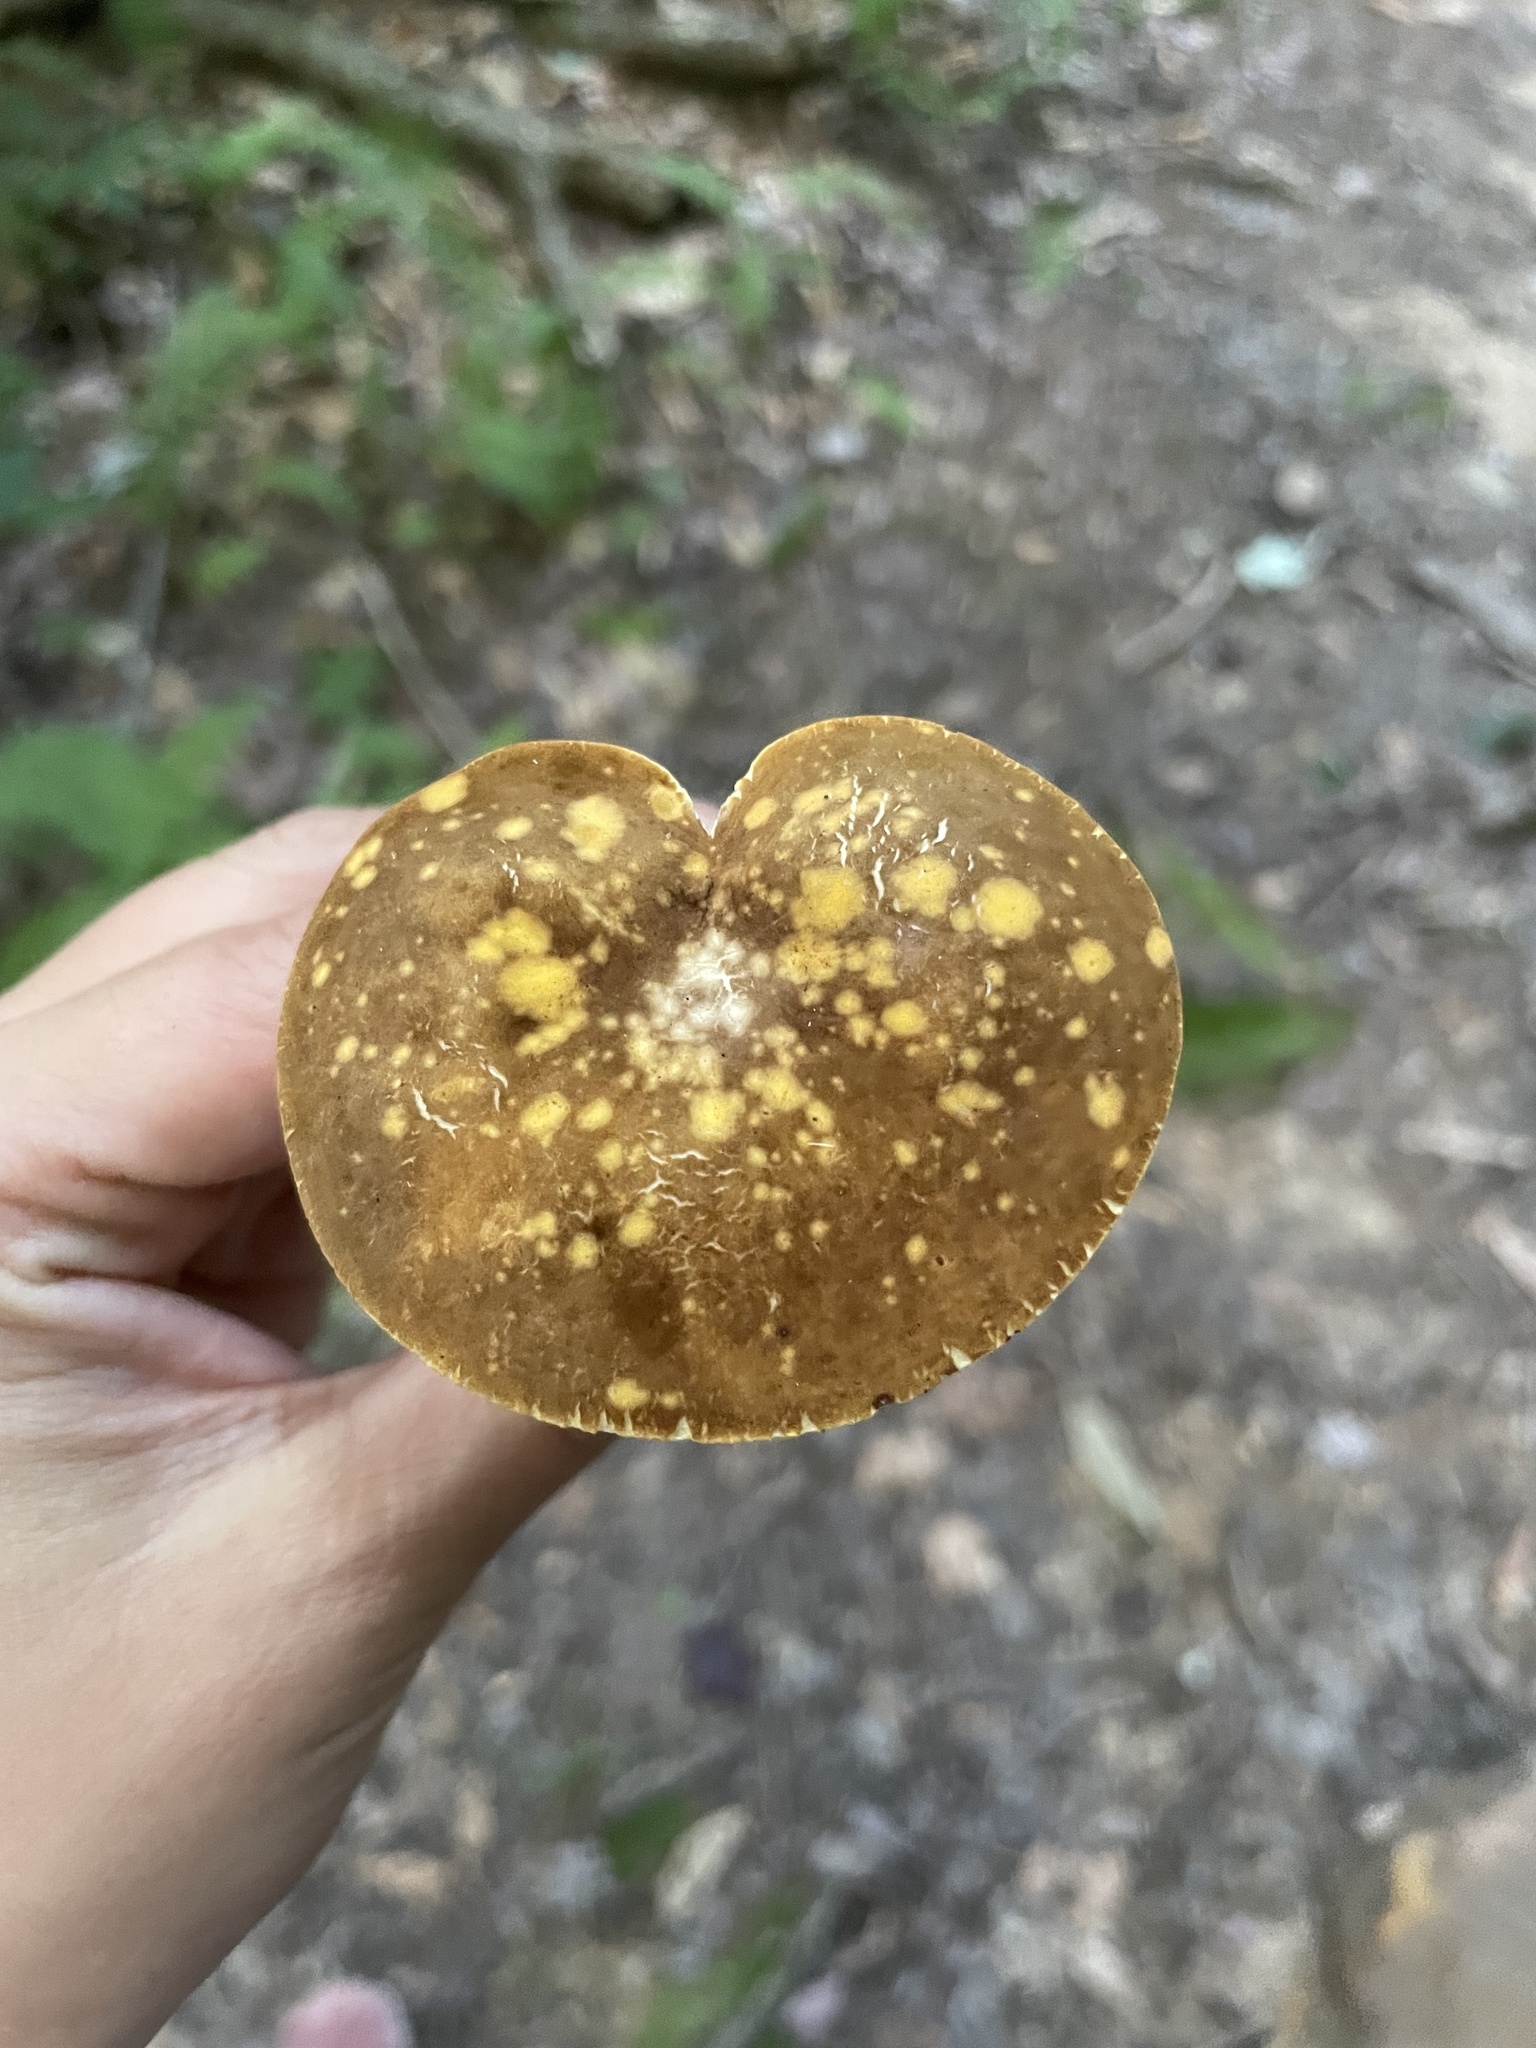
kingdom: Fungi
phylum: Basidiomycota
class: Agaricomycetes
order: Boletales
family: Boletaceae
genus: Xanthoconium
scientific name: Xanthoconium affine
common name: Spotted bolete
